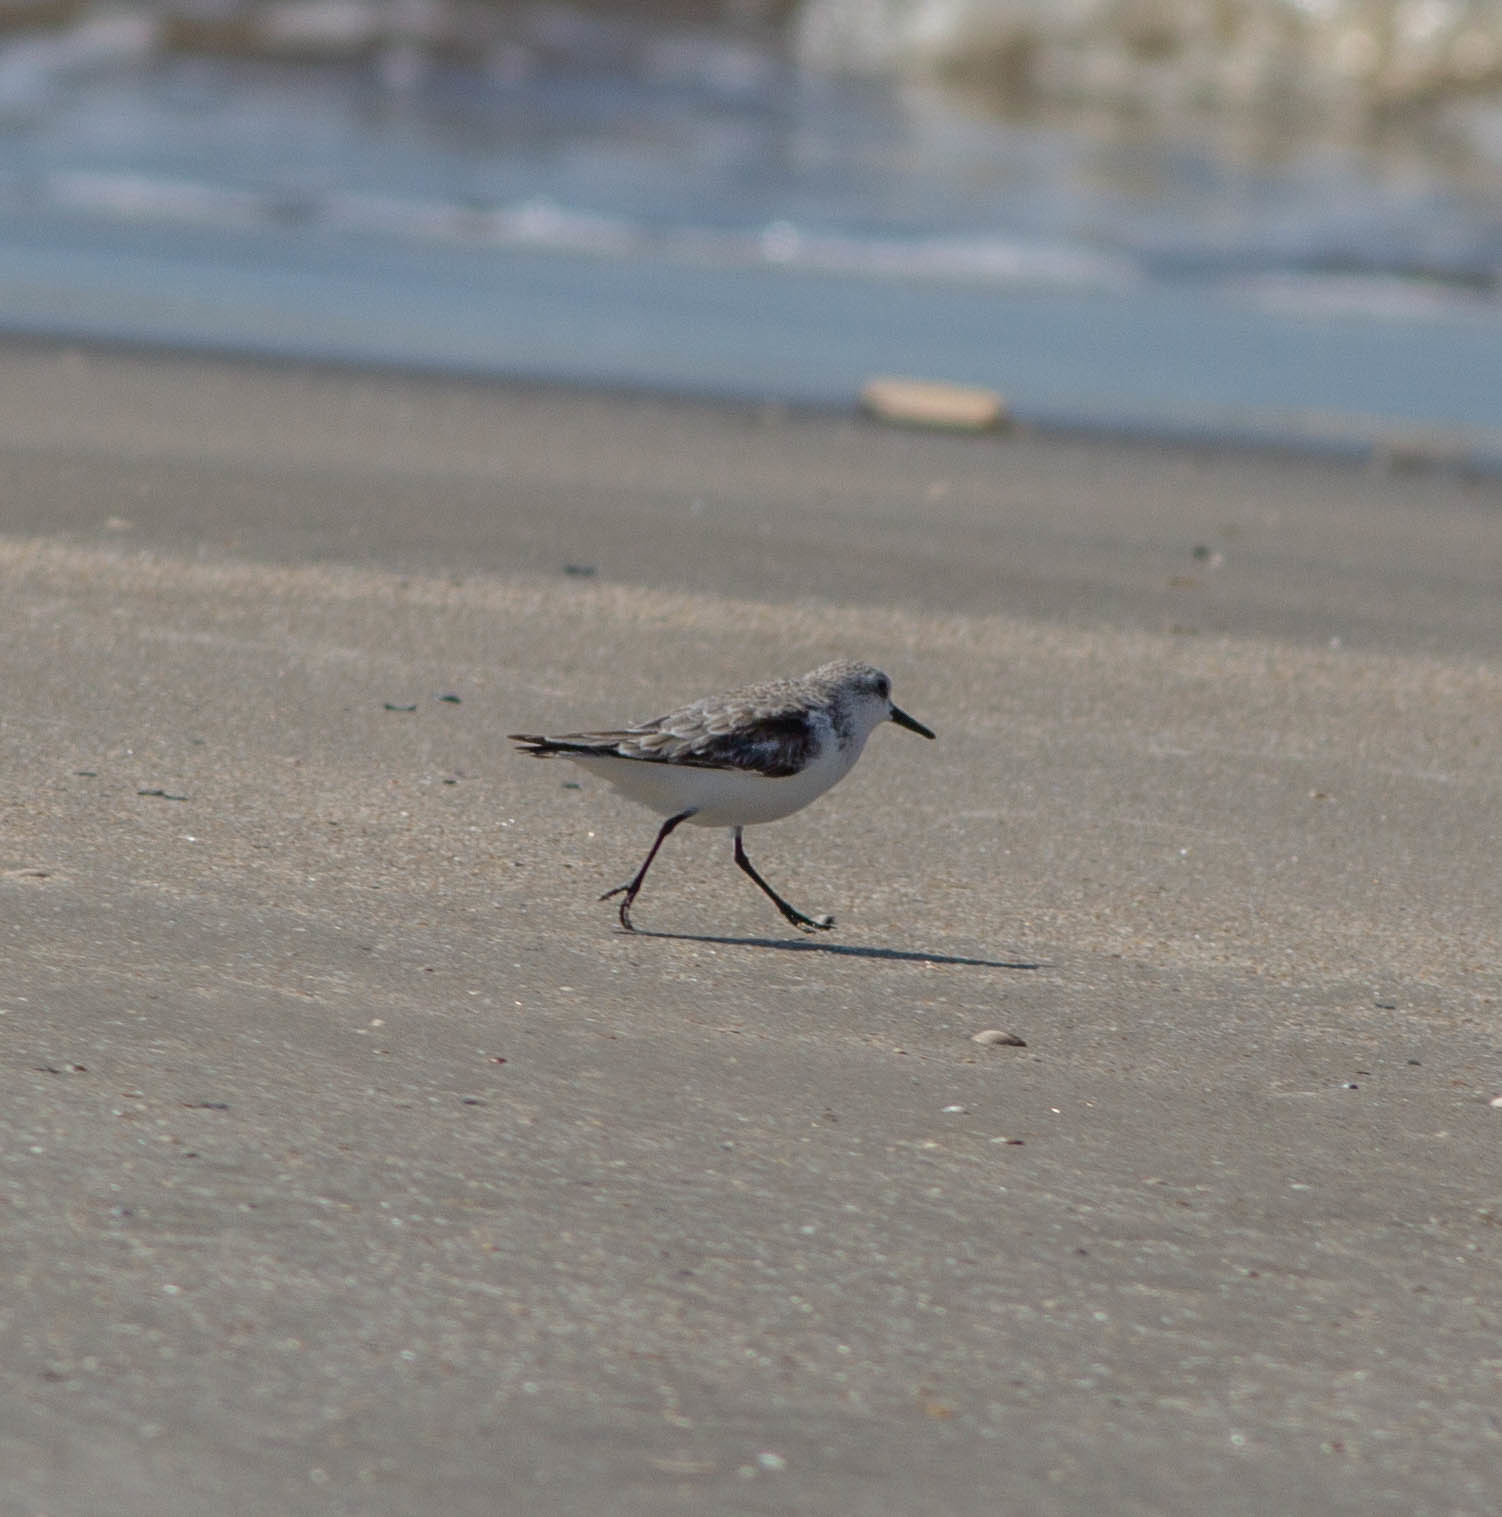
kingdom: Animalia
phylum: Chordata
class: Aves
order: Charadriiformes
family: Scolopacidae
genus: Calidris
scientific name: Calidris alba
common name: Sanderling
